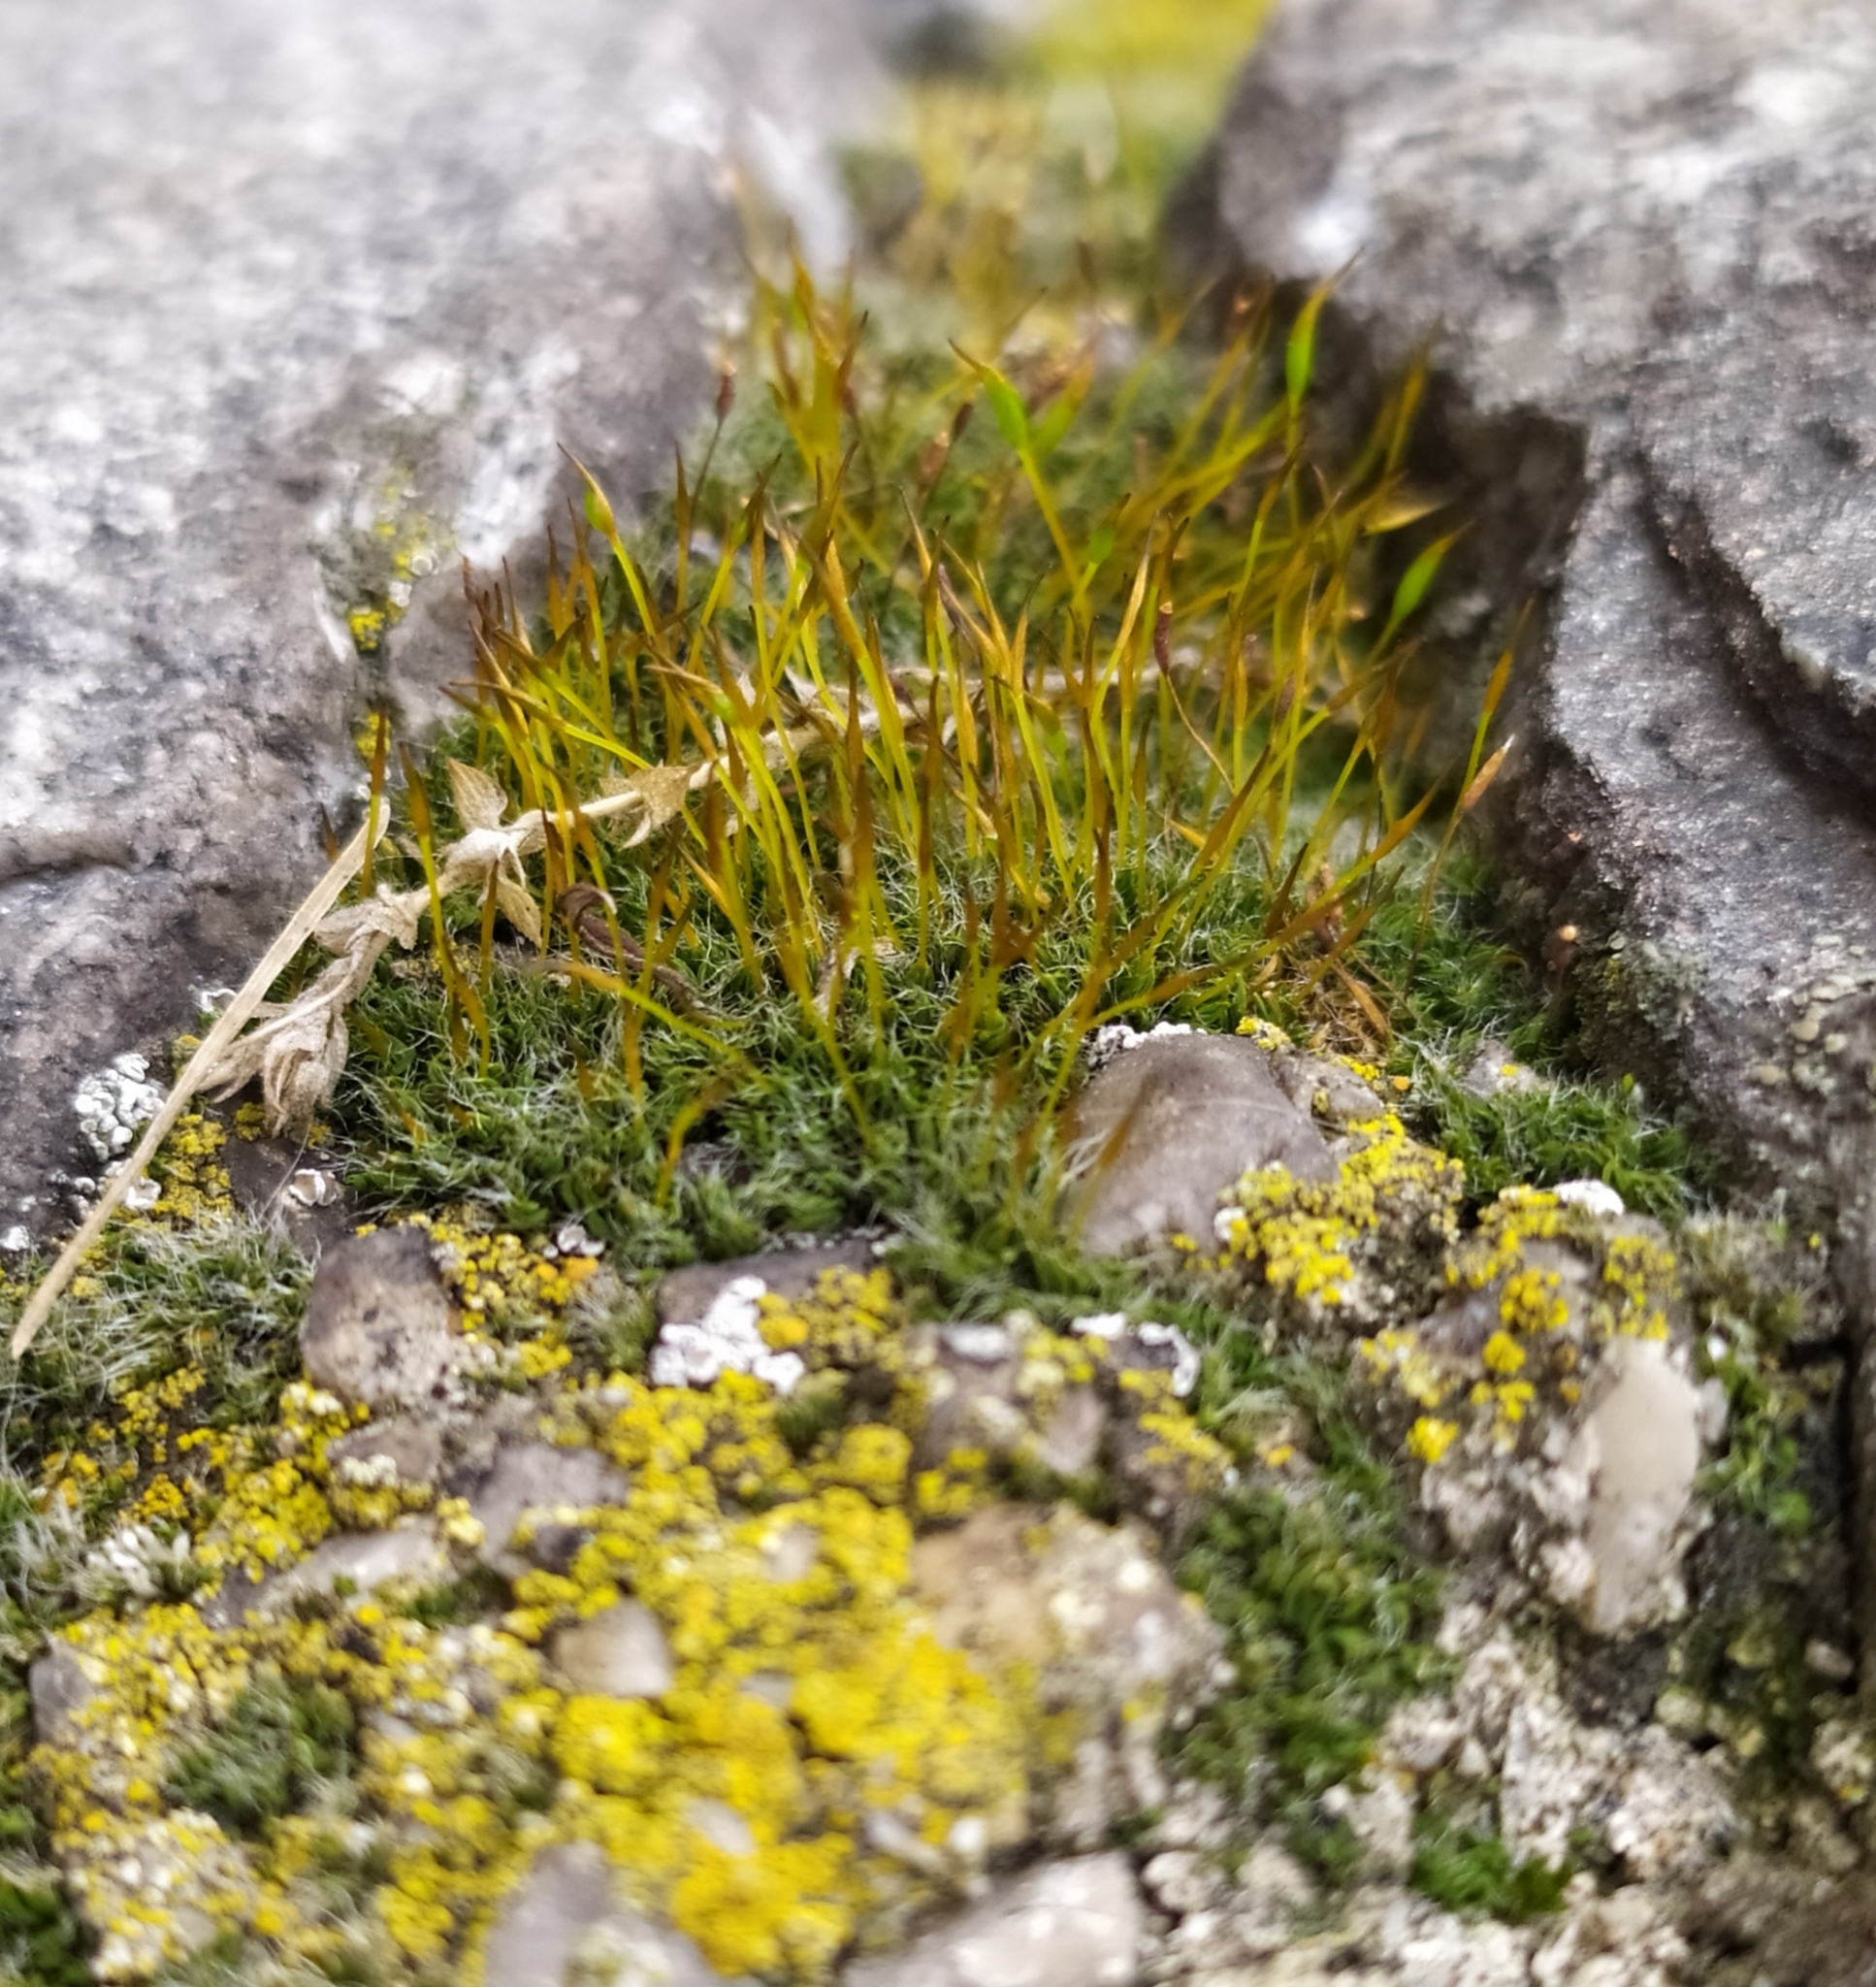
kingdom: Plantae
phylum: Bryophyta
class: Bryopsida
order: Pottiales
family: Pottiaceae
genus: Tortula
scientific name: Tortula muralis
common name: Wall screw-moss
